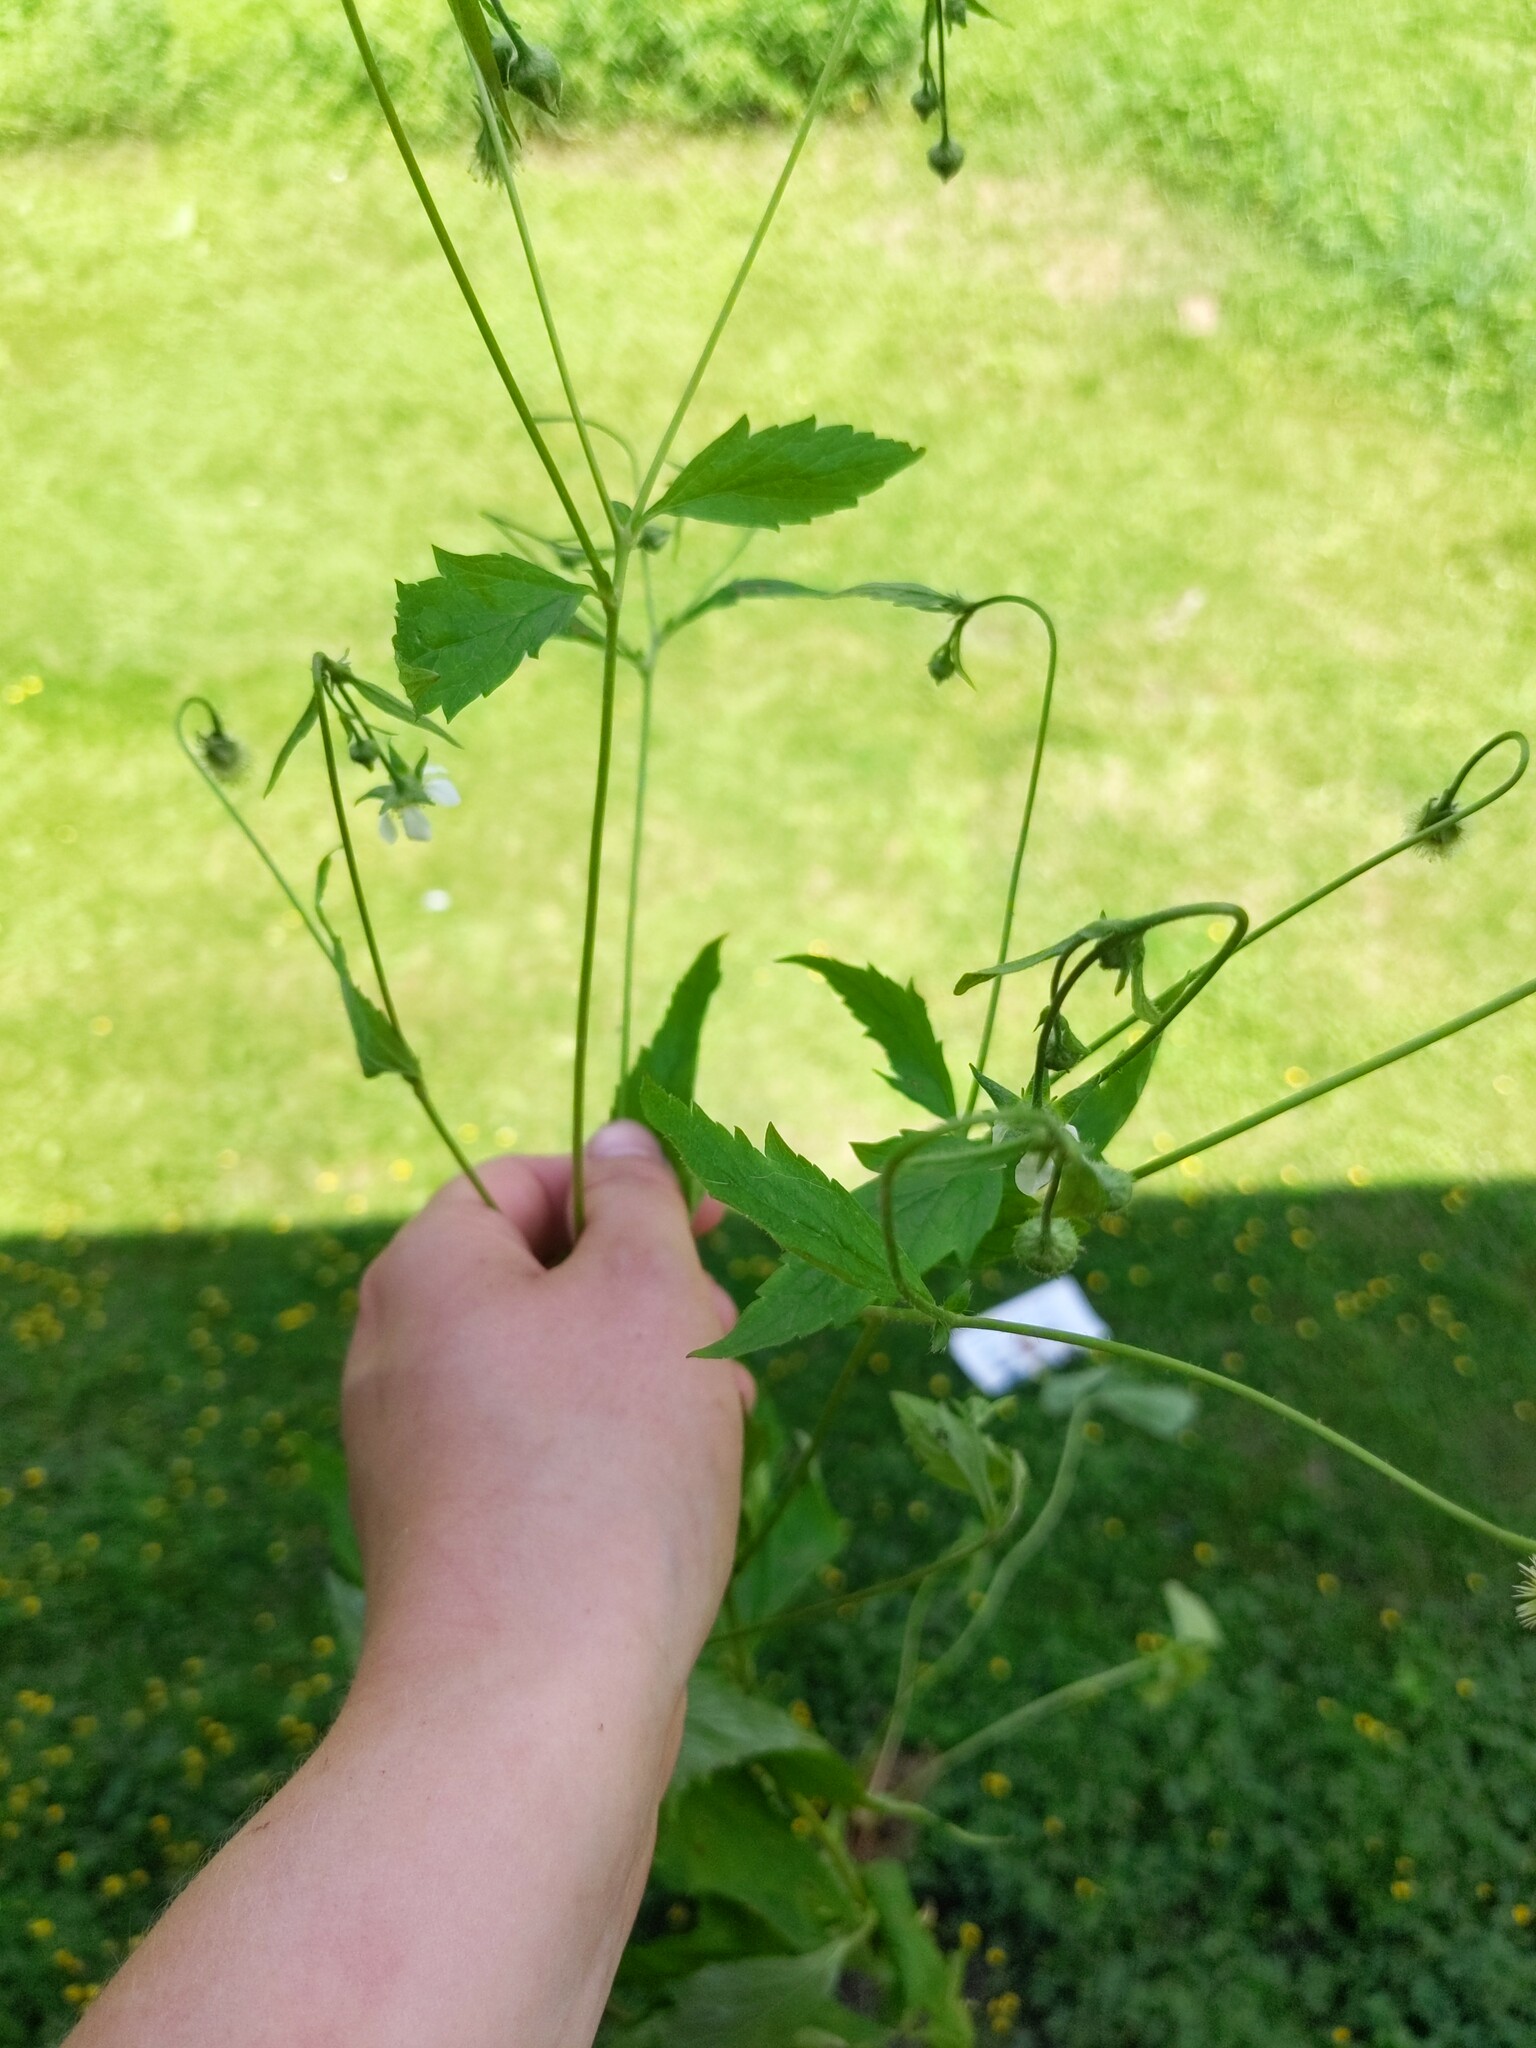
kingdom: Plantae
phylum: Tracheophyta
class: Magnoliopsida
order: Rosales
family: Rosaceae
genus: Geum
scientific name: Geum canadense
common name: White avens
